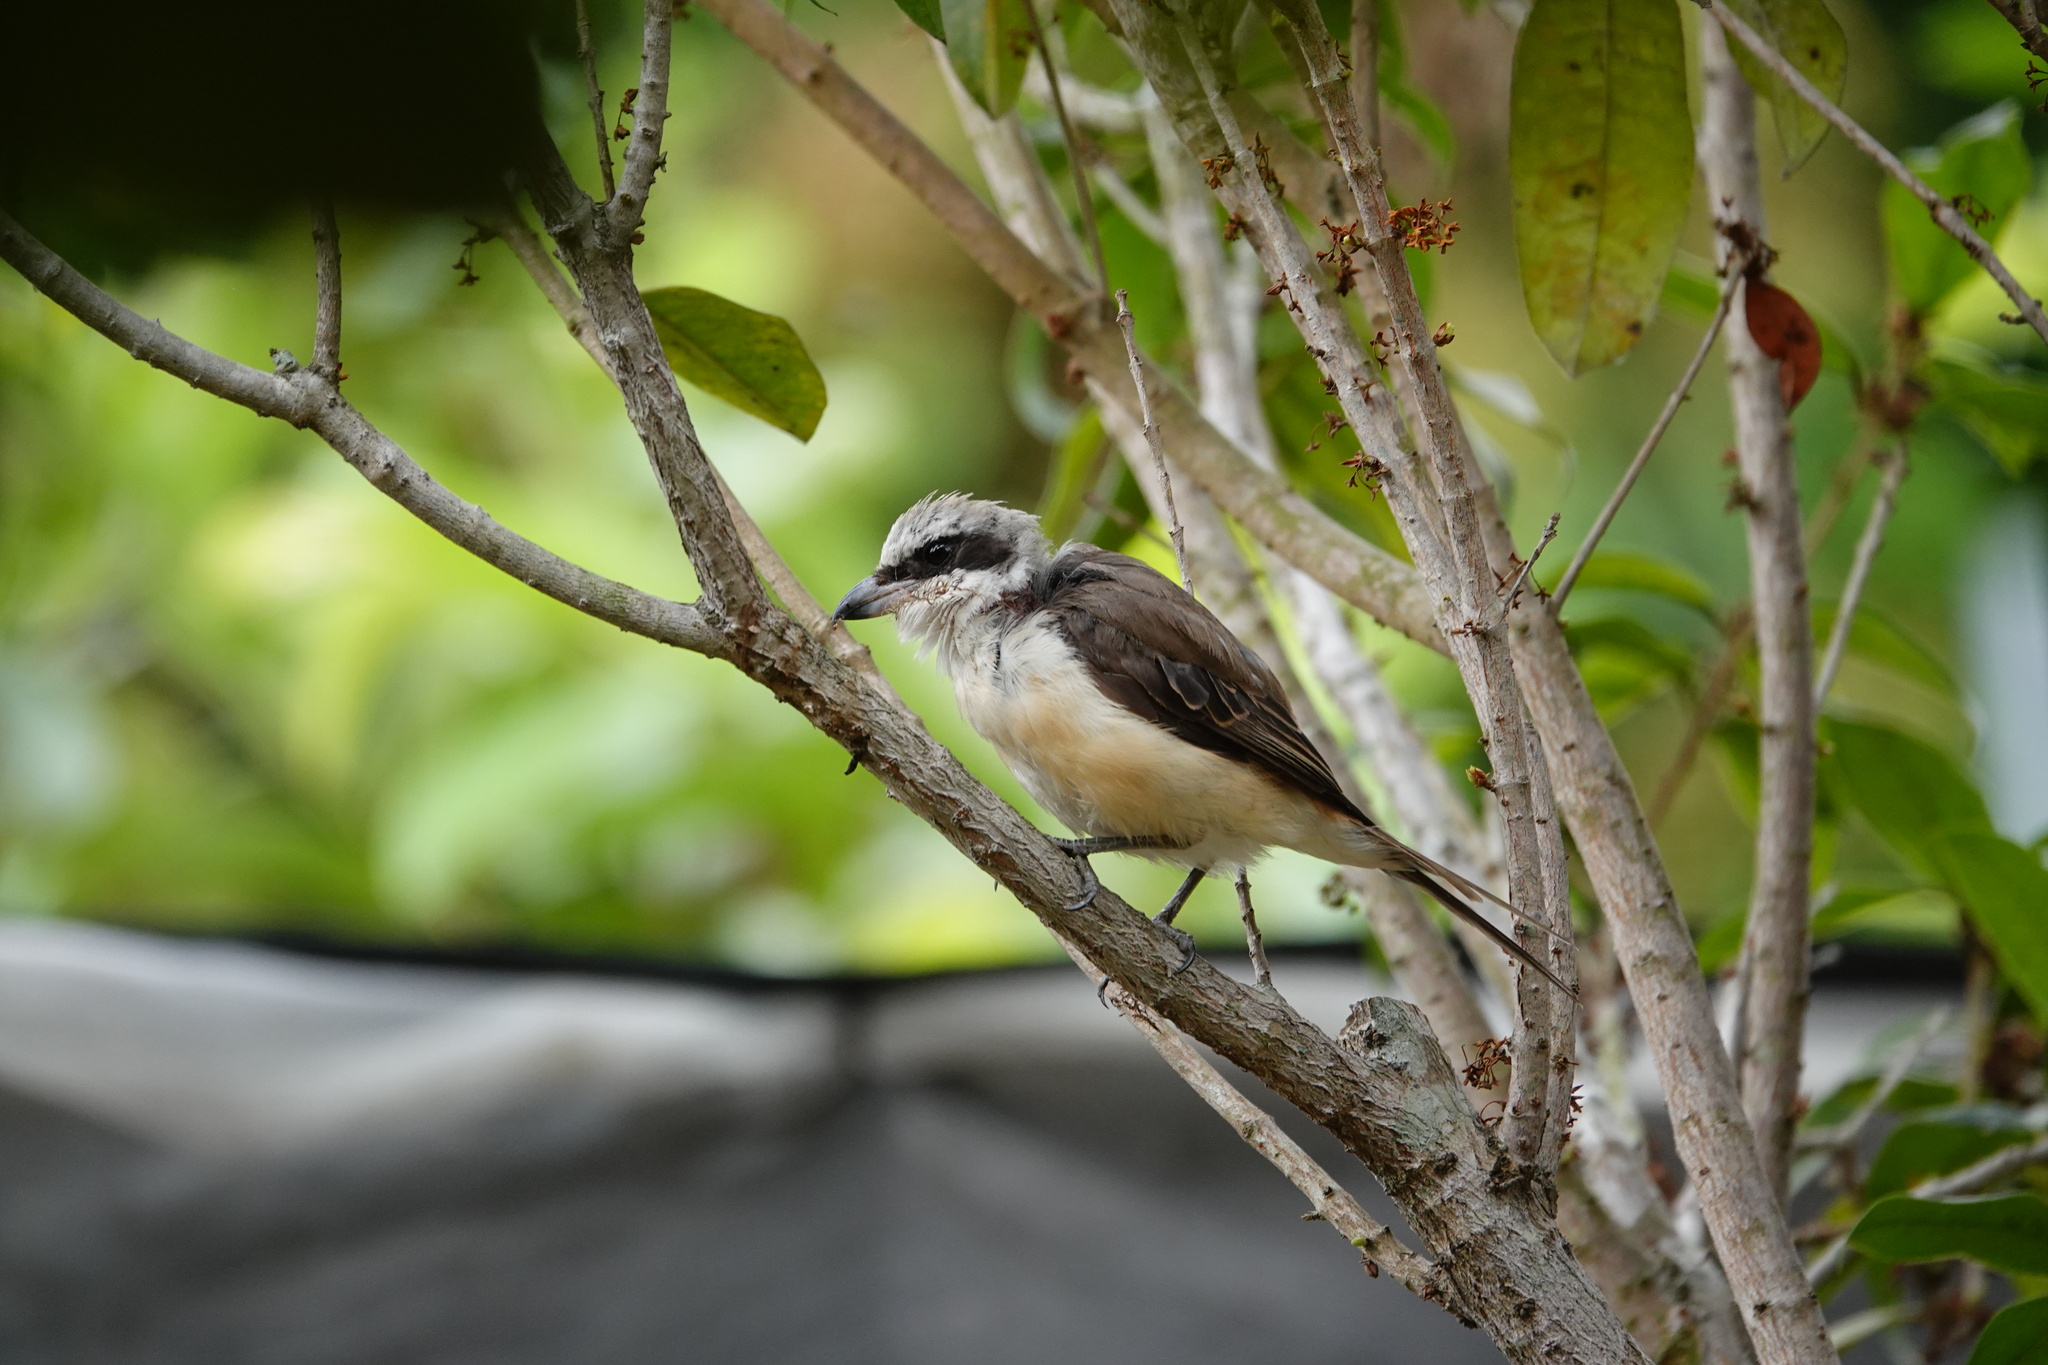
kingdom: Animalia
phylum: Chordata
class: Aves
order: Passeriformes
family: Laniidae
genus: Lanius
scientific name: Lanius cristatus
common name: Brown shrike
